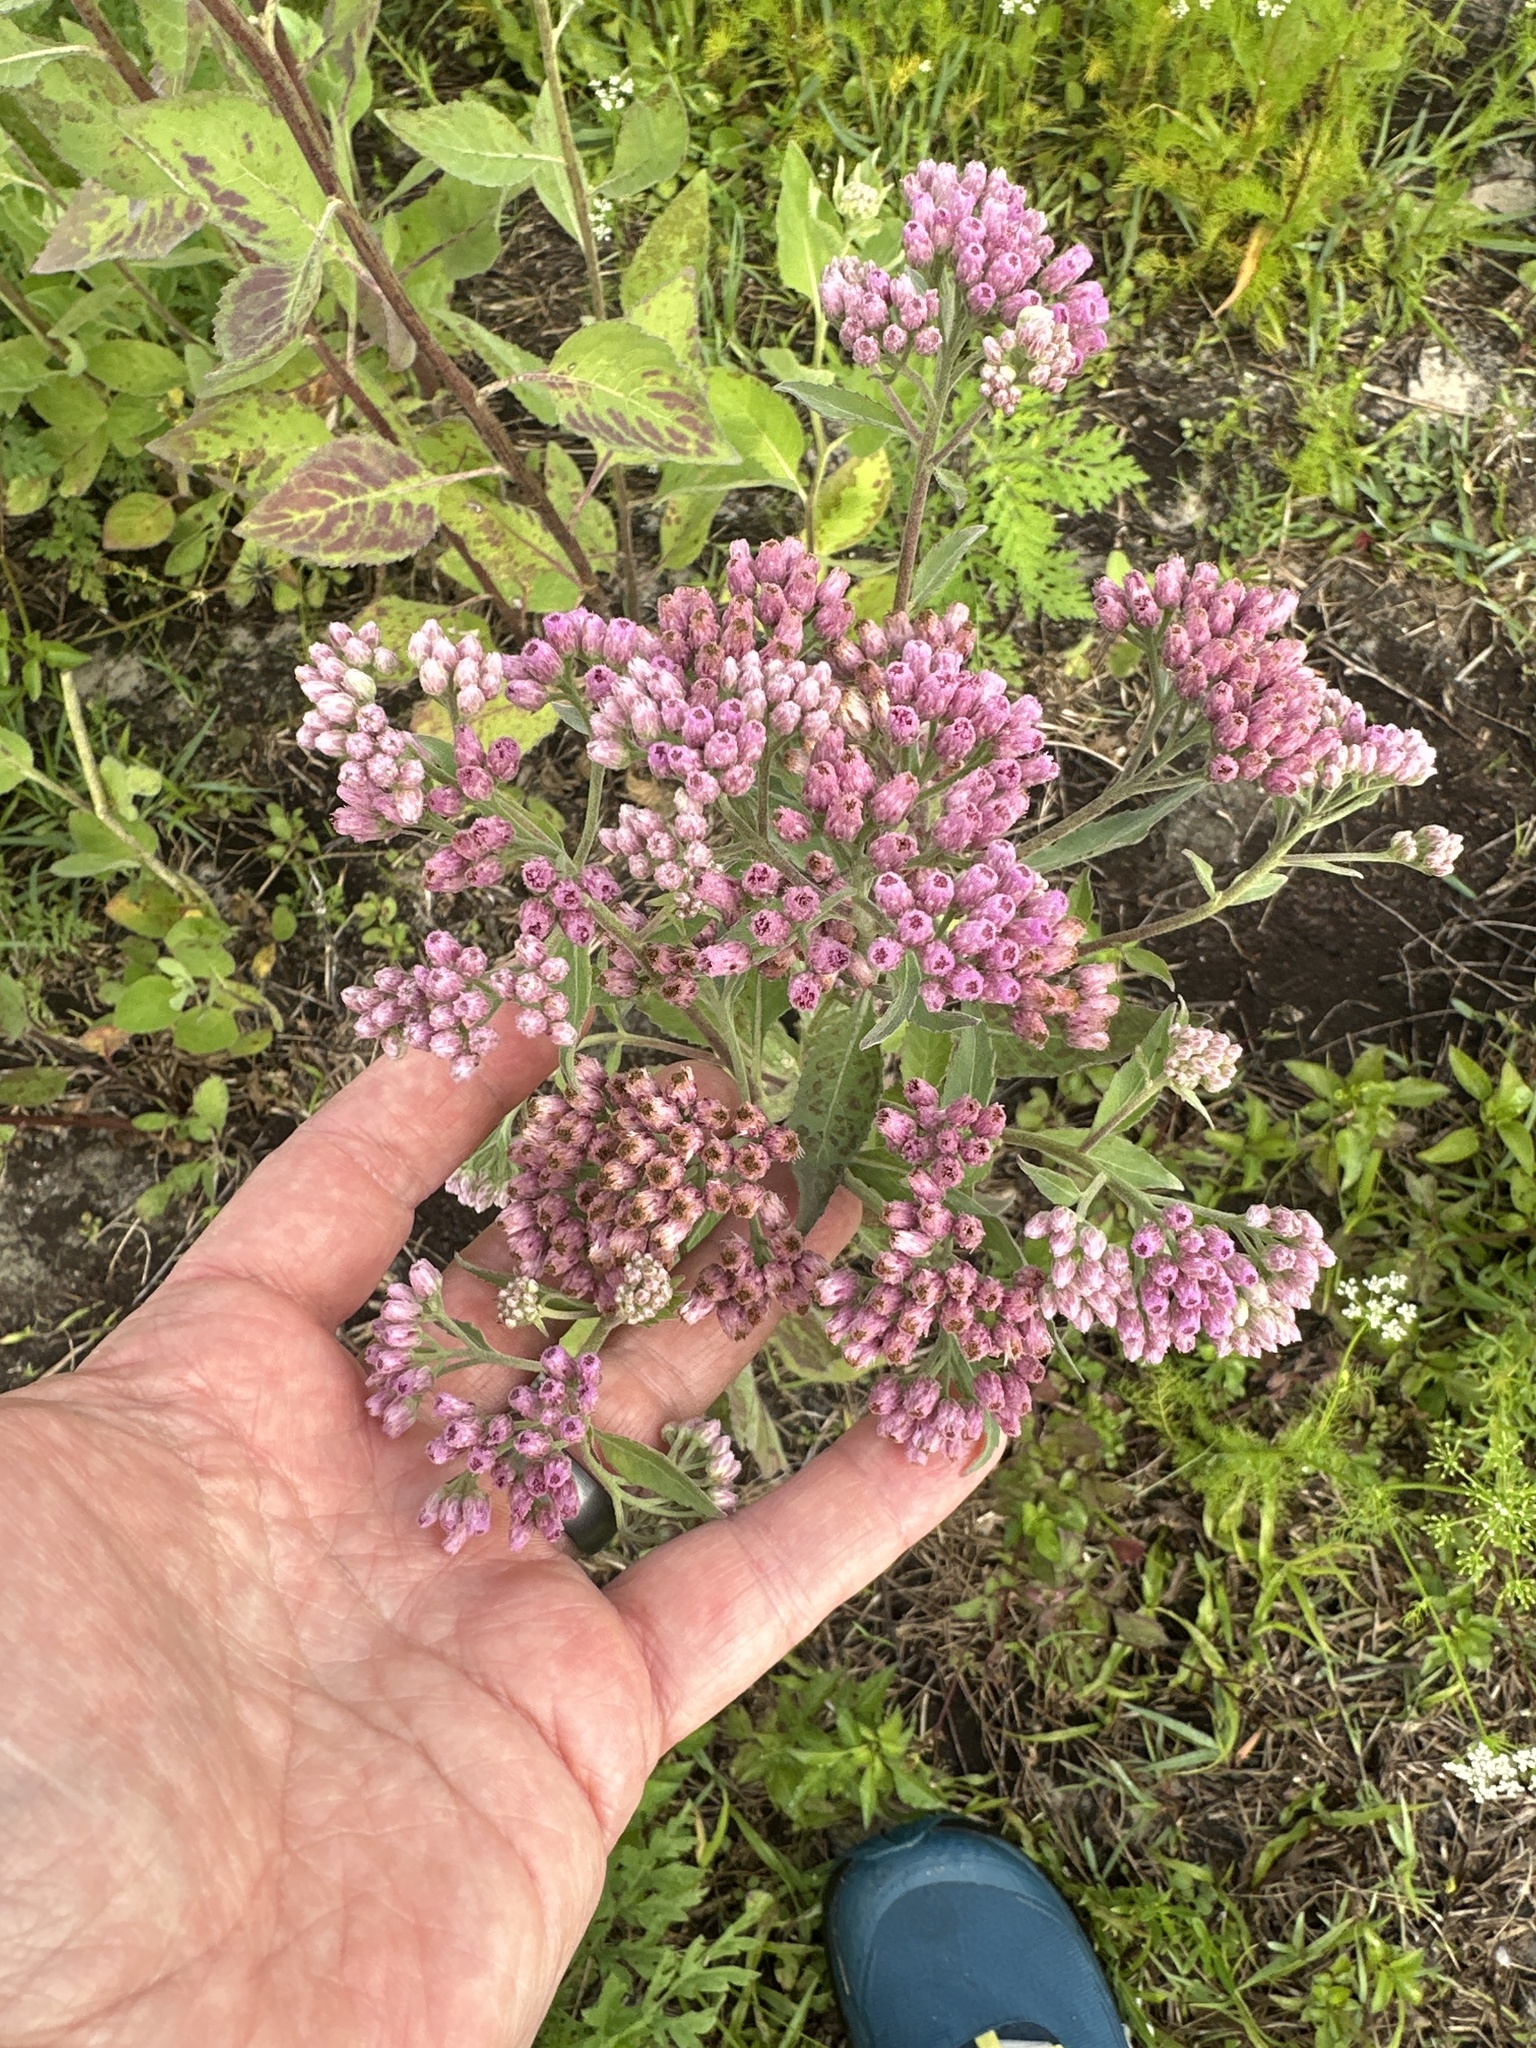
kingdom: Plantae
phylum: Tracheophyta
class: Magnoliopsida
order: Asterales
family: Asteraceae
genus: Pluchea
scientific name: Pluchea odorata
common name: Saltmarsh fleabane
